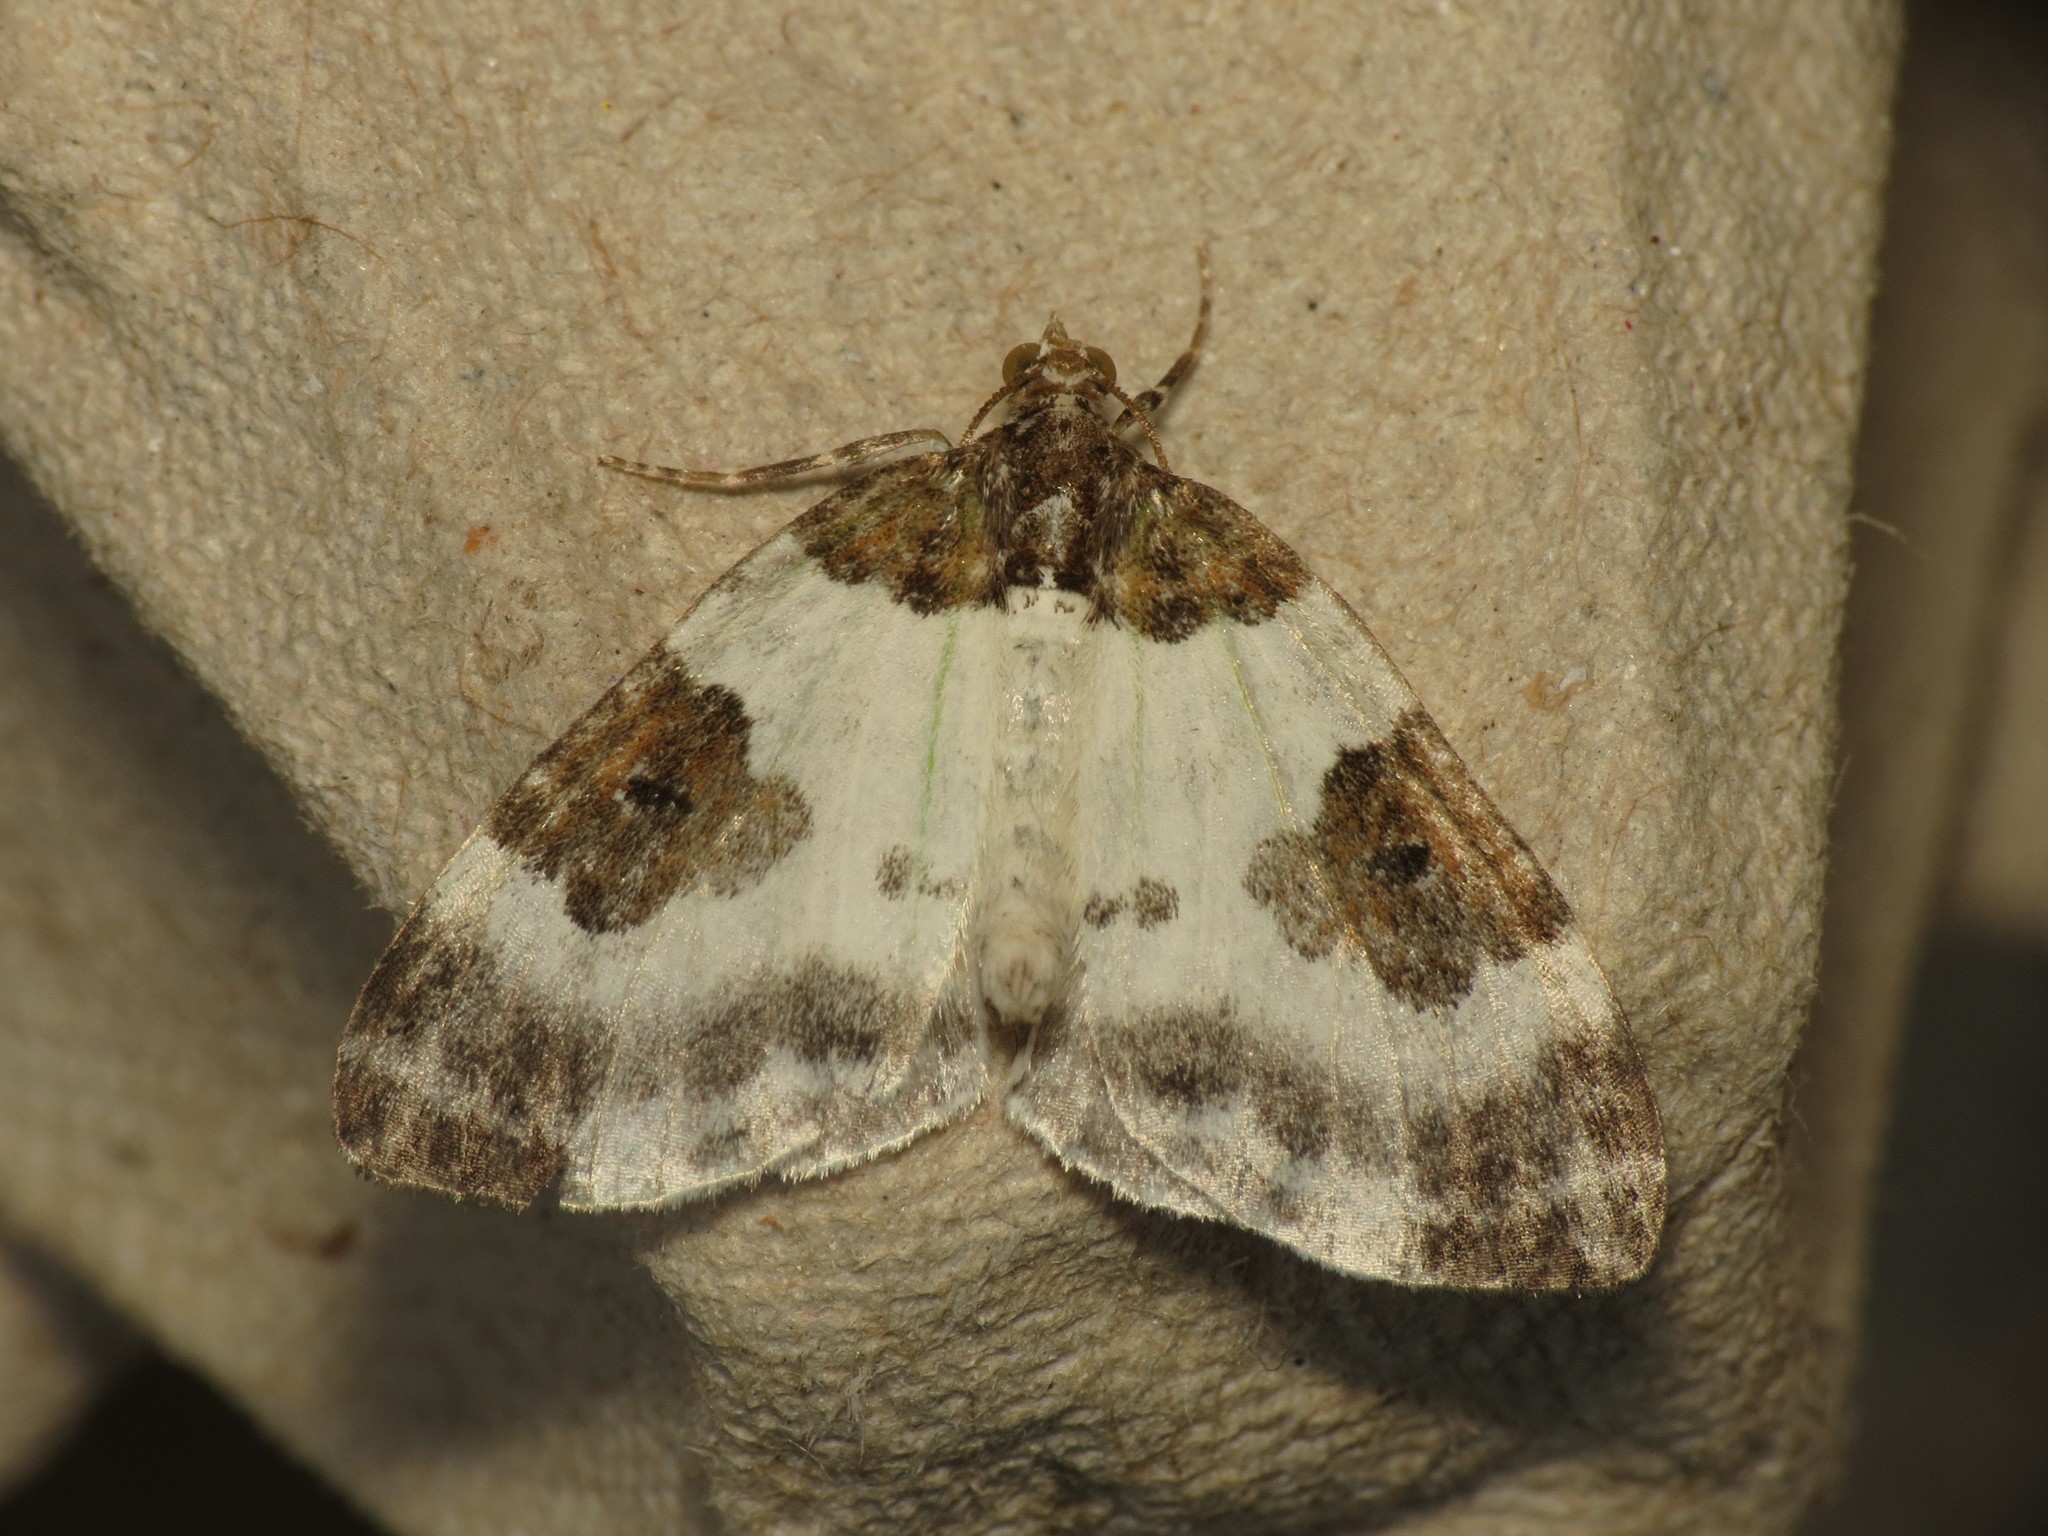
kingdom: Animalia
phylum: Arthropoda
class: Insecta
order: Lepidoptera
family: Geometridae
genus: Plemyria
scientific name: Plemyria rubiginata
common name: Blue-bordered carpet
